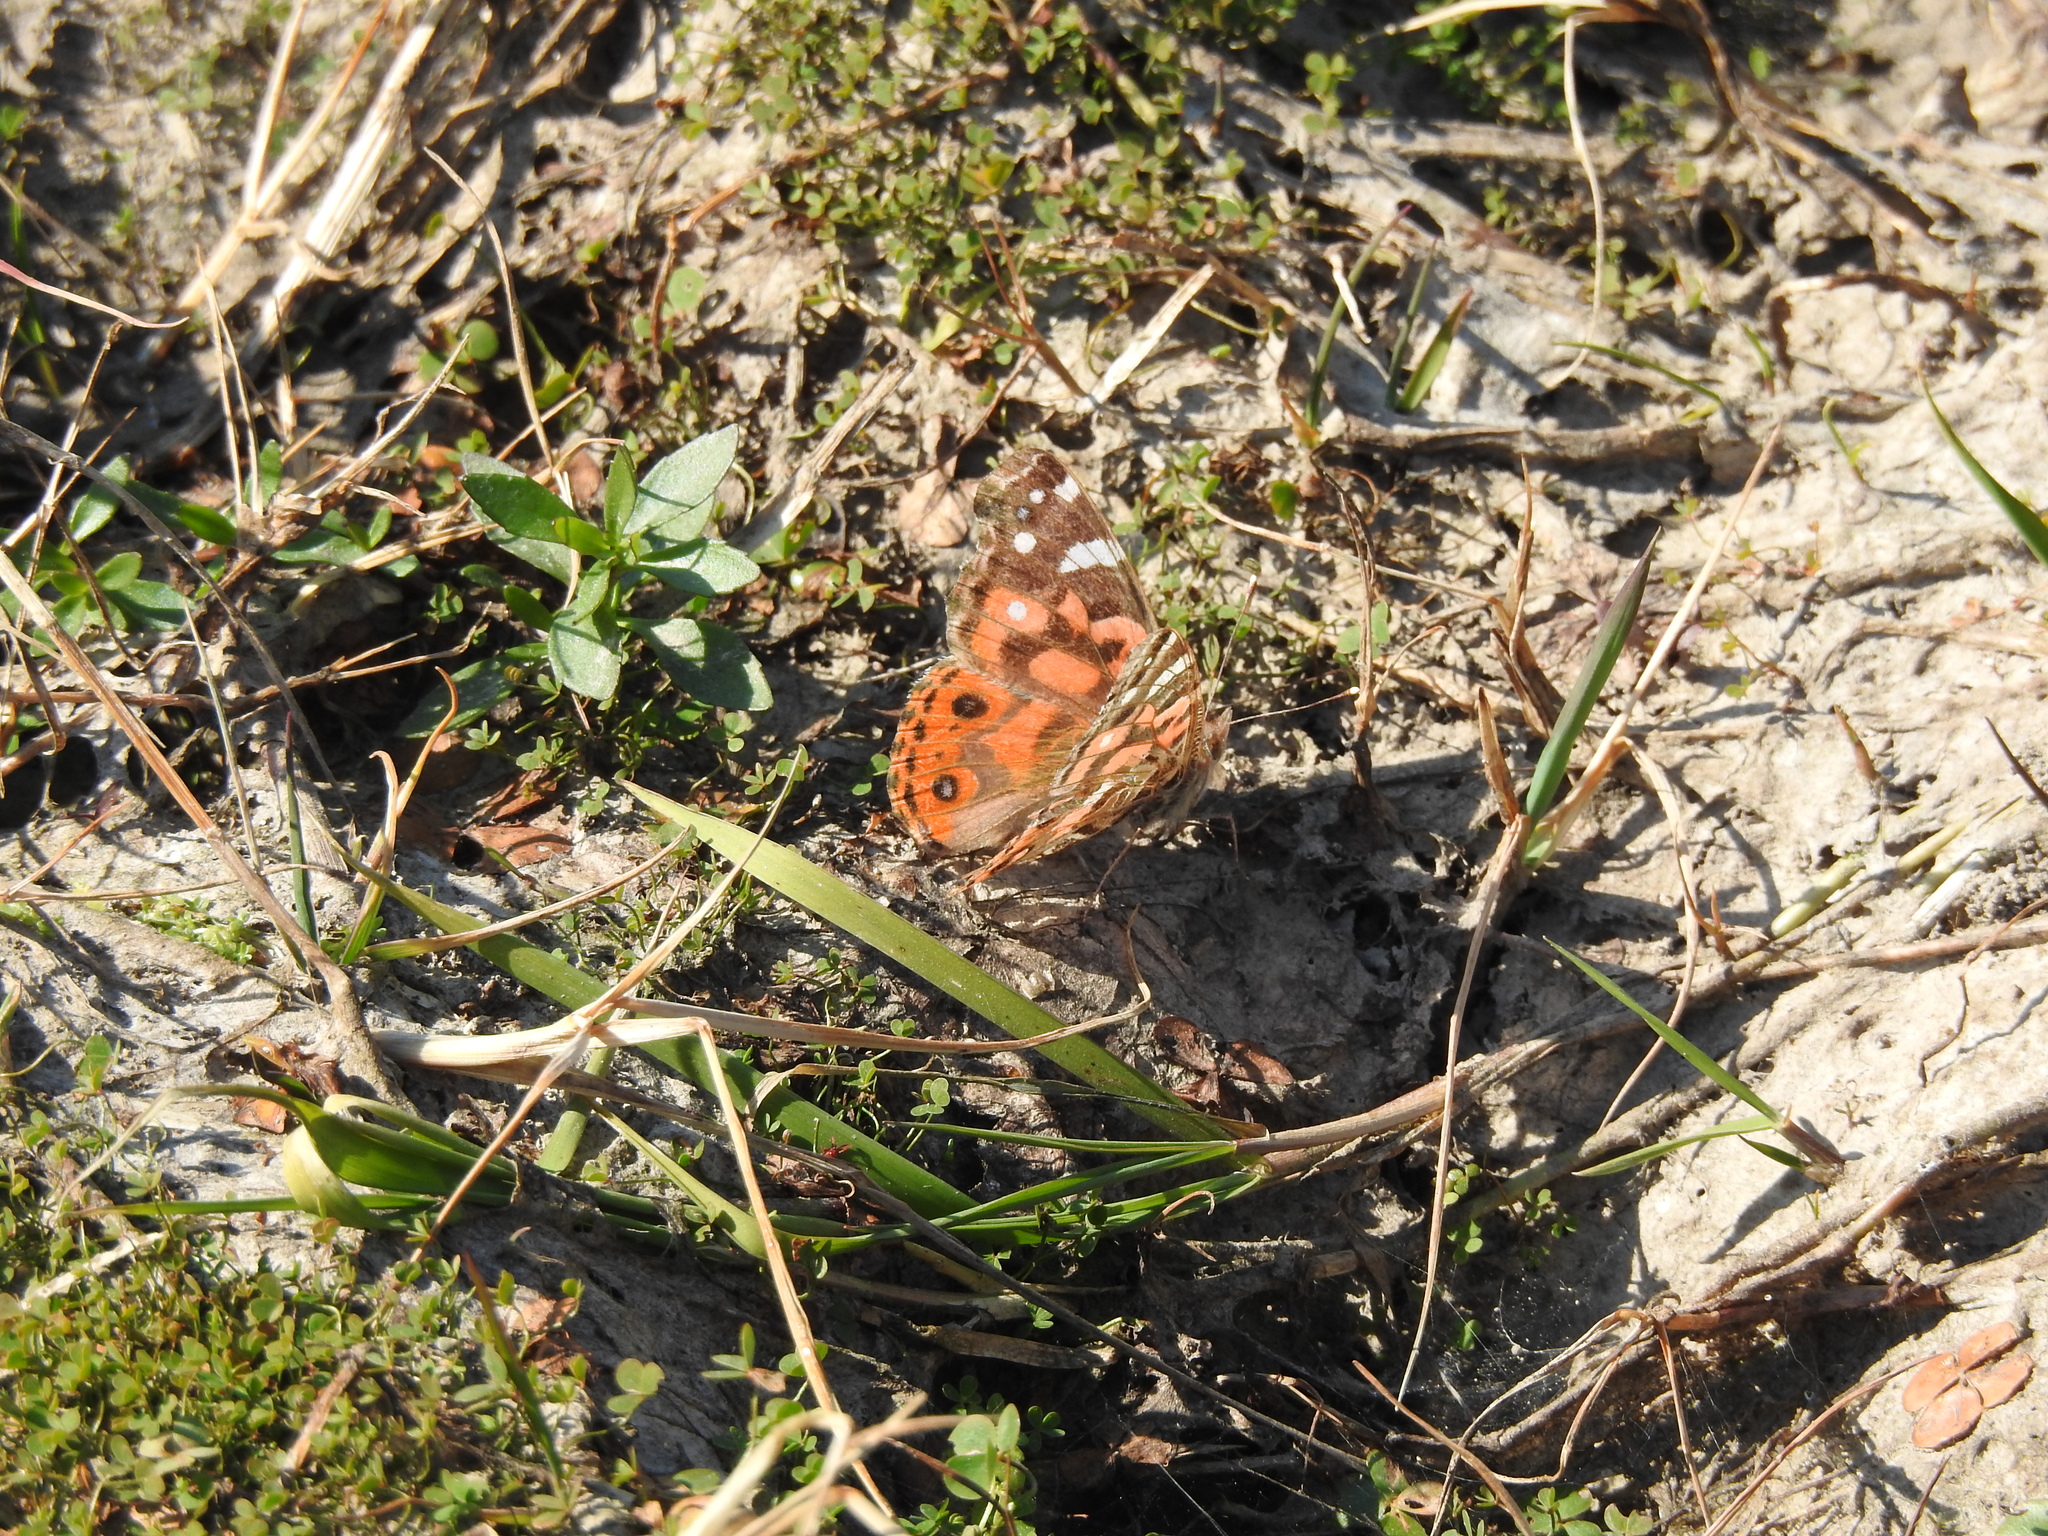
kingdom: Animalia
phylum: Arthropoda
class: Insecta
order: Lepidoptera
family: Nymphalidae
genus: Vanessa
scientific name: Vanessa braziliensis
